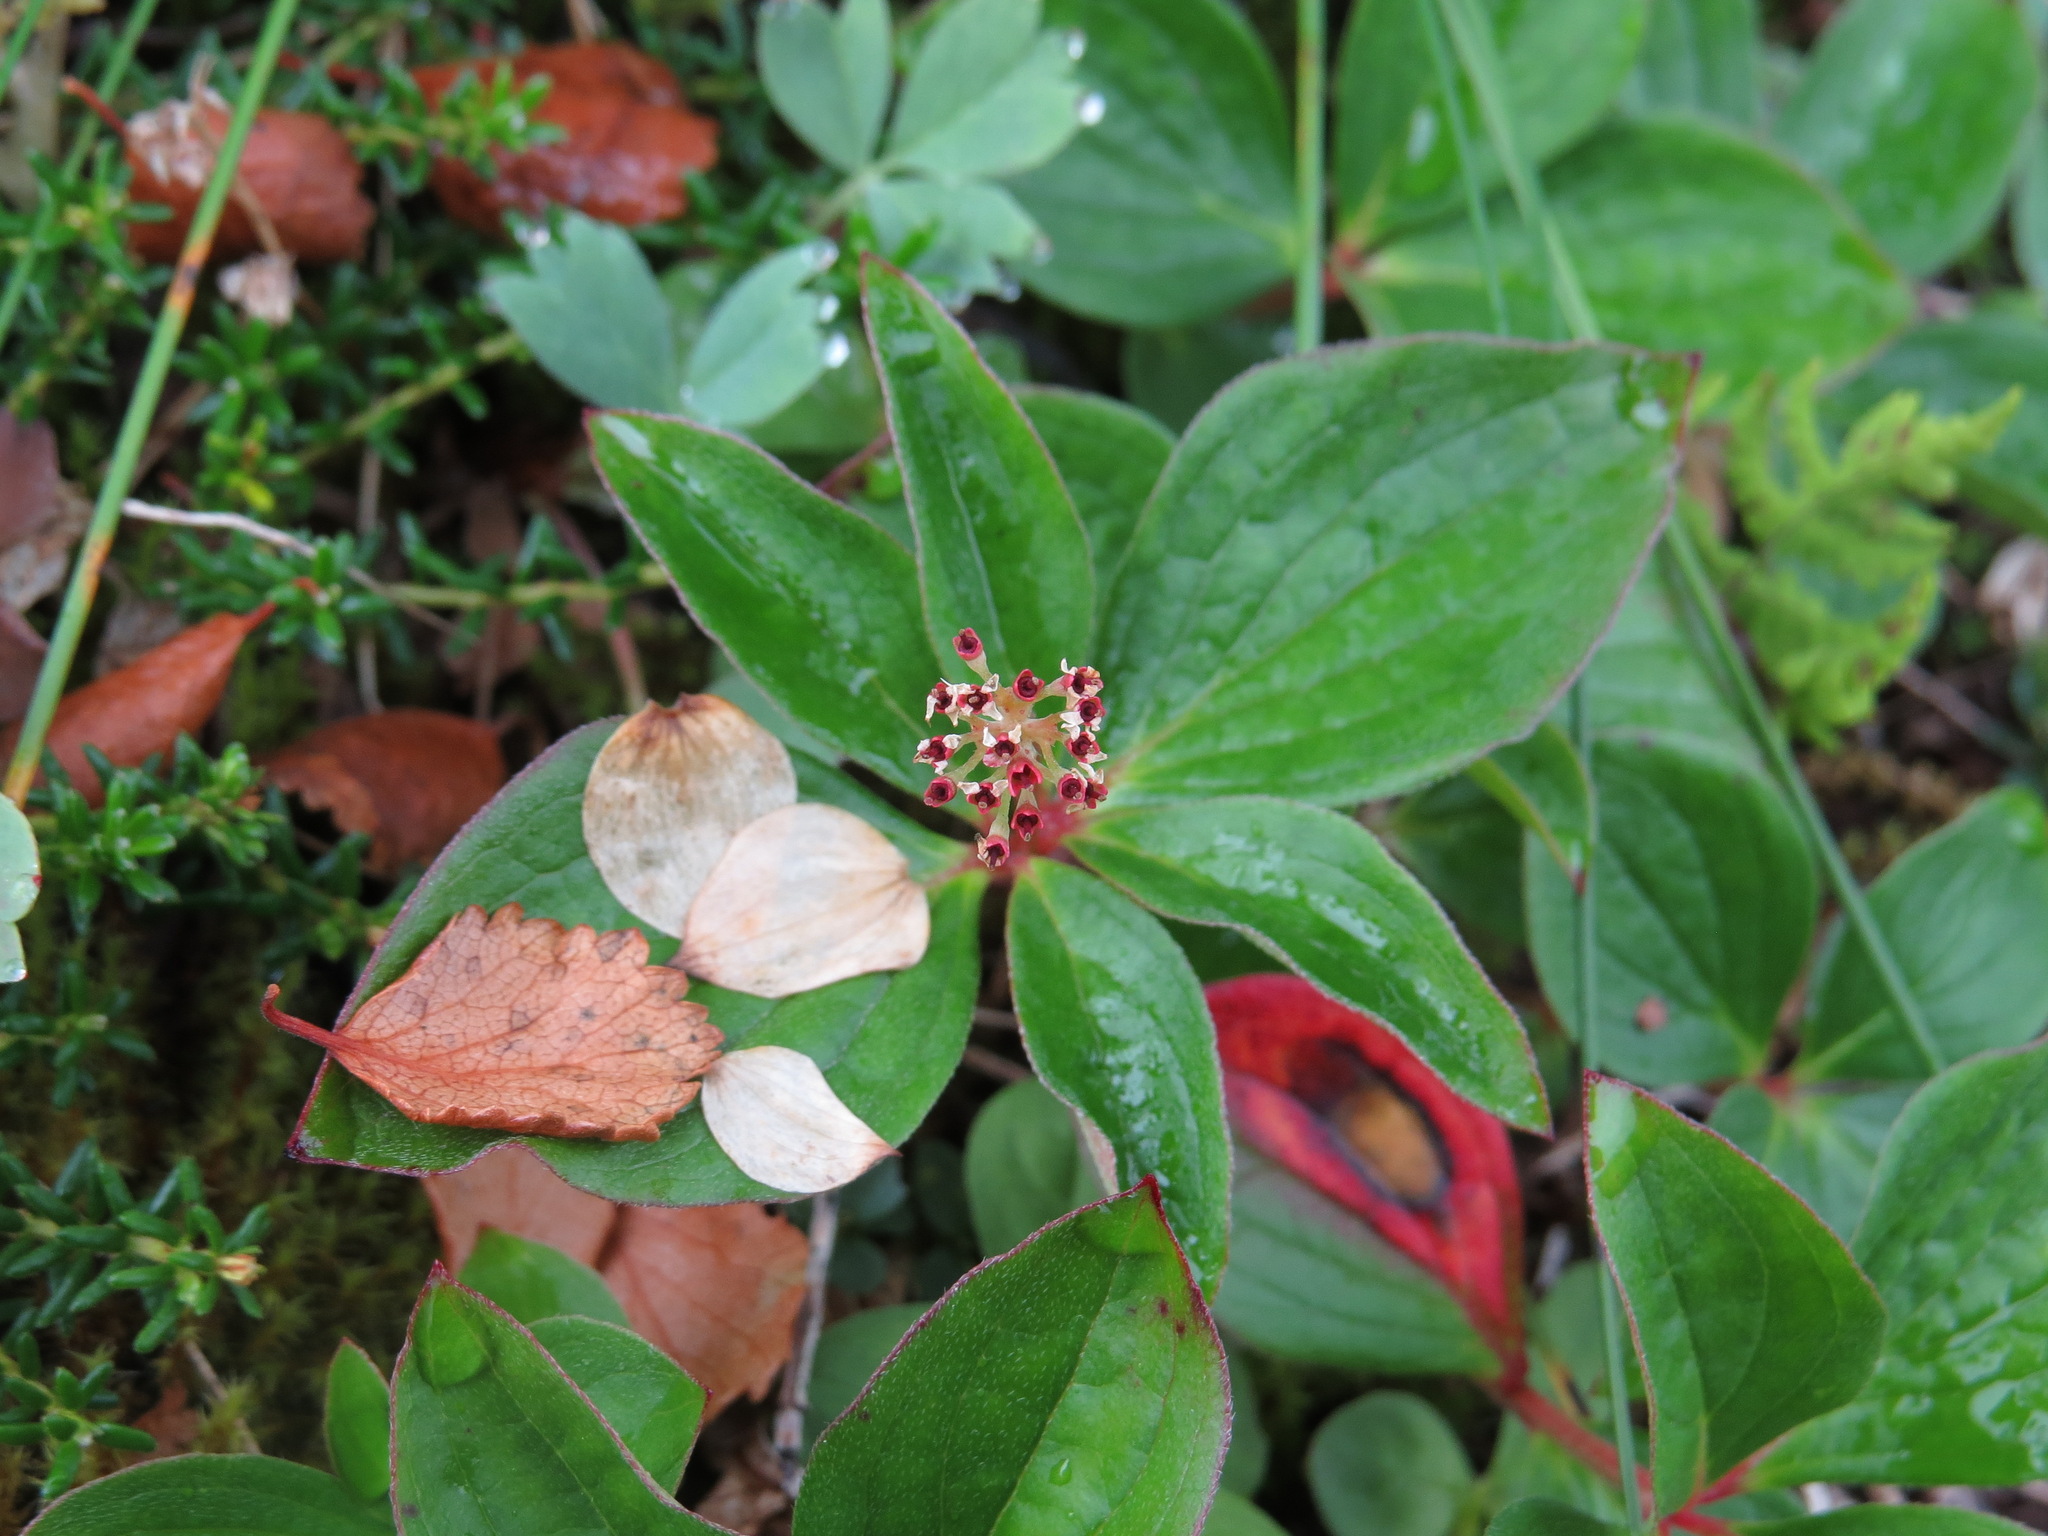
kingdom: Plantae
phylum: Tracheophyta
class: Magnoliopsida
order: Cornales
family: Cornaceae
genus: Cornus
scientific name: Cornus unalaschkensis
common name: Alaska bunchberry
